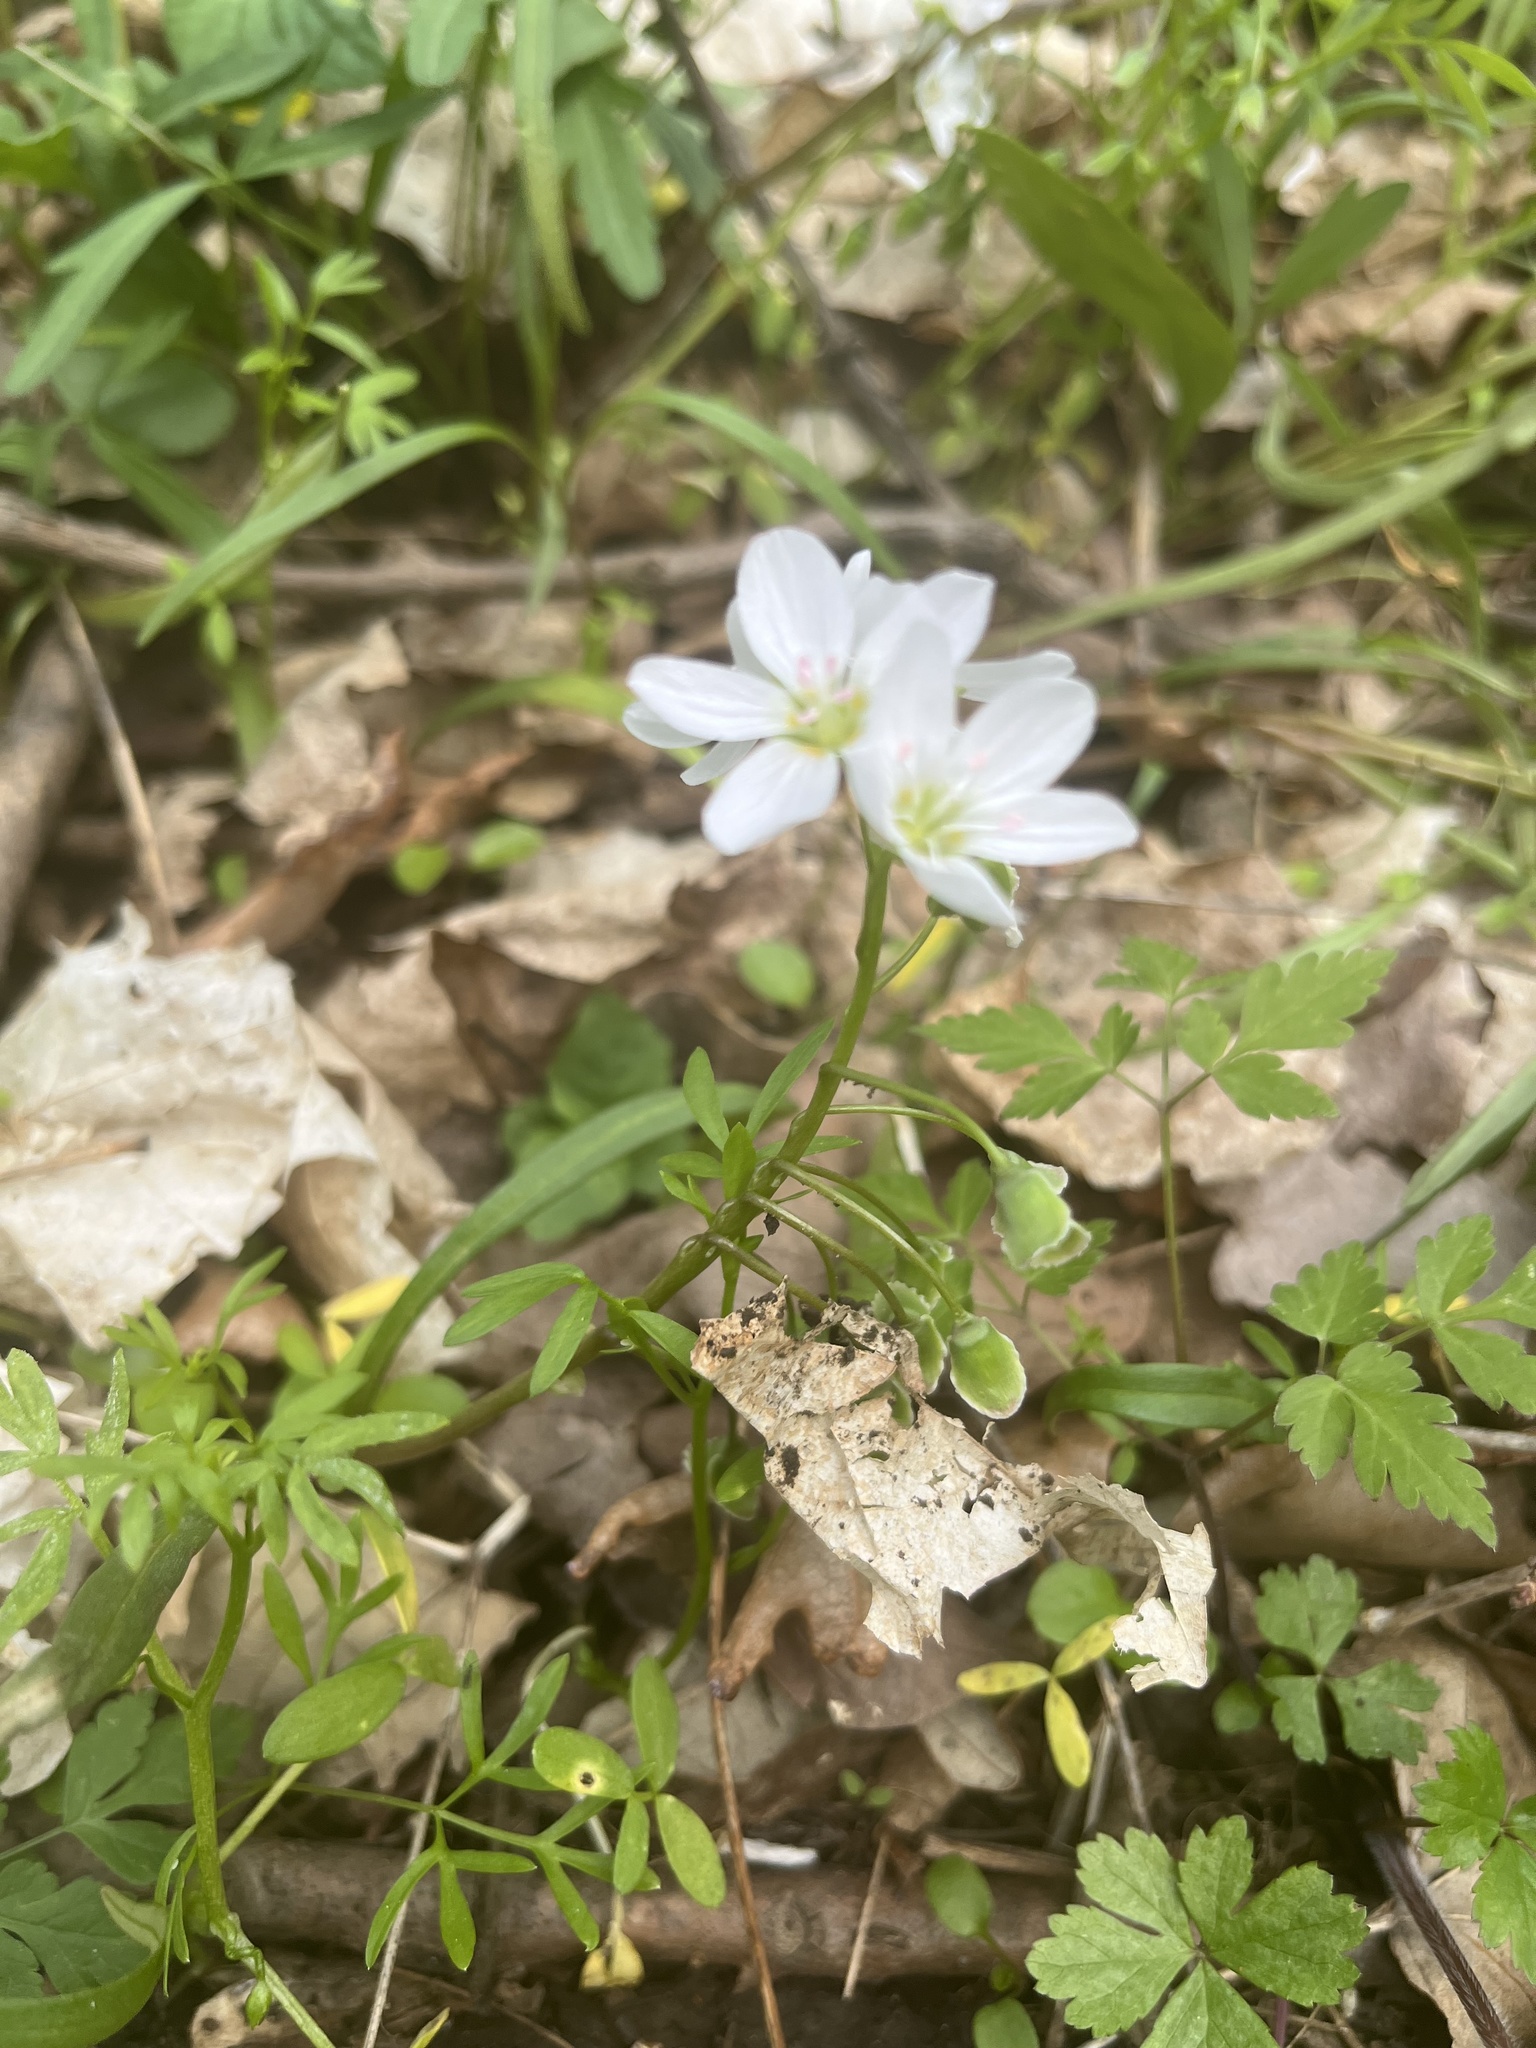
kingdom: Plantae
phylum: Tracheophyta
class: Magnoliopsida
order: Caryophyllales
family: Montiaceae
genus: Claytonia
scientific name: Claytonia virginica
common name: Virginia springbeauty
